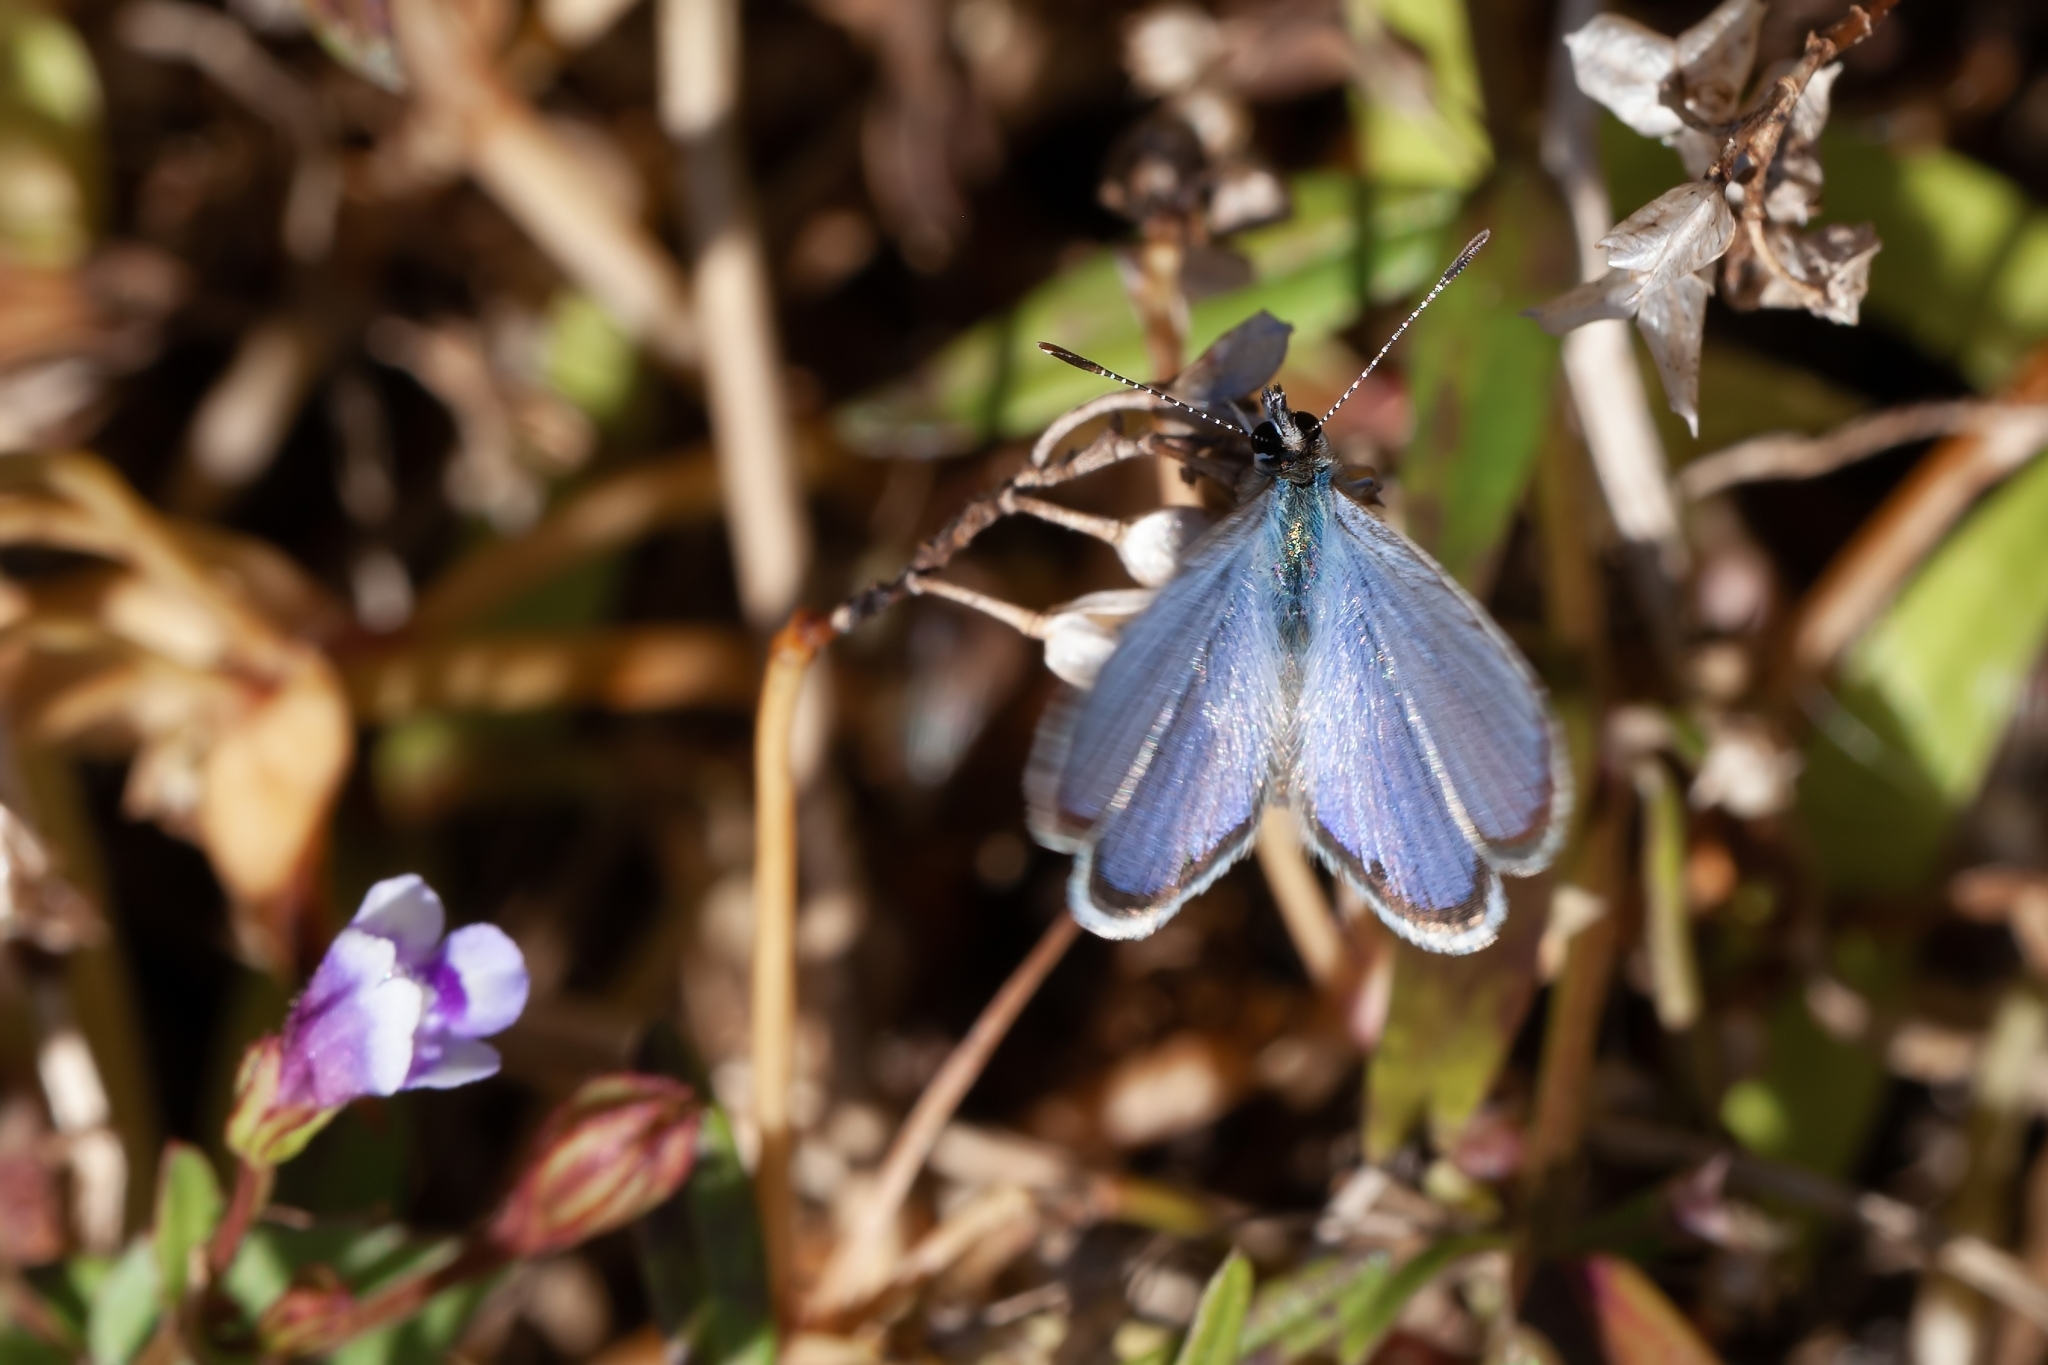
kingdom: Animalia
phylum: Arthropoda
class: Insecta
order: Lepidoptera
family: Lycaenidae
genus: Hemiargus
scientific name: Hemiargus ceraunus
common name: Ceraunus blue
